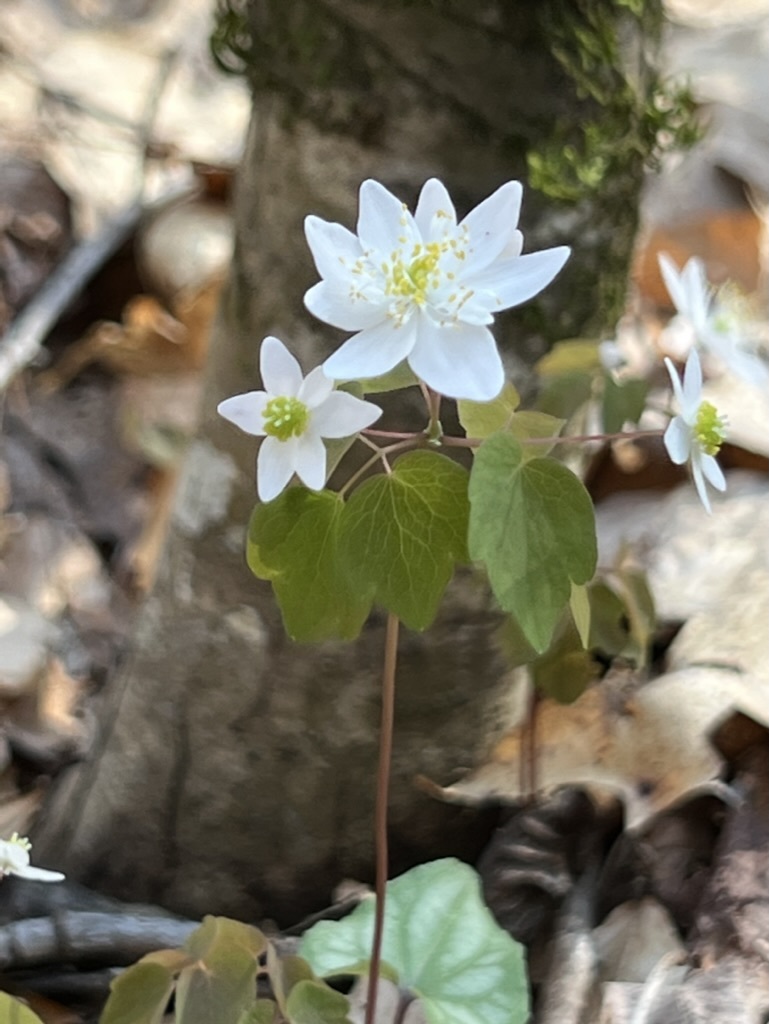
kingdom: Plantae
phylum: Tracheophyta
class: Magnoliopsida
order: Ranunculales
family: Ranunculaceae
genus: Thalictrum
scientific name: Thalictrum thalictroides
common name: Rue-anemone
